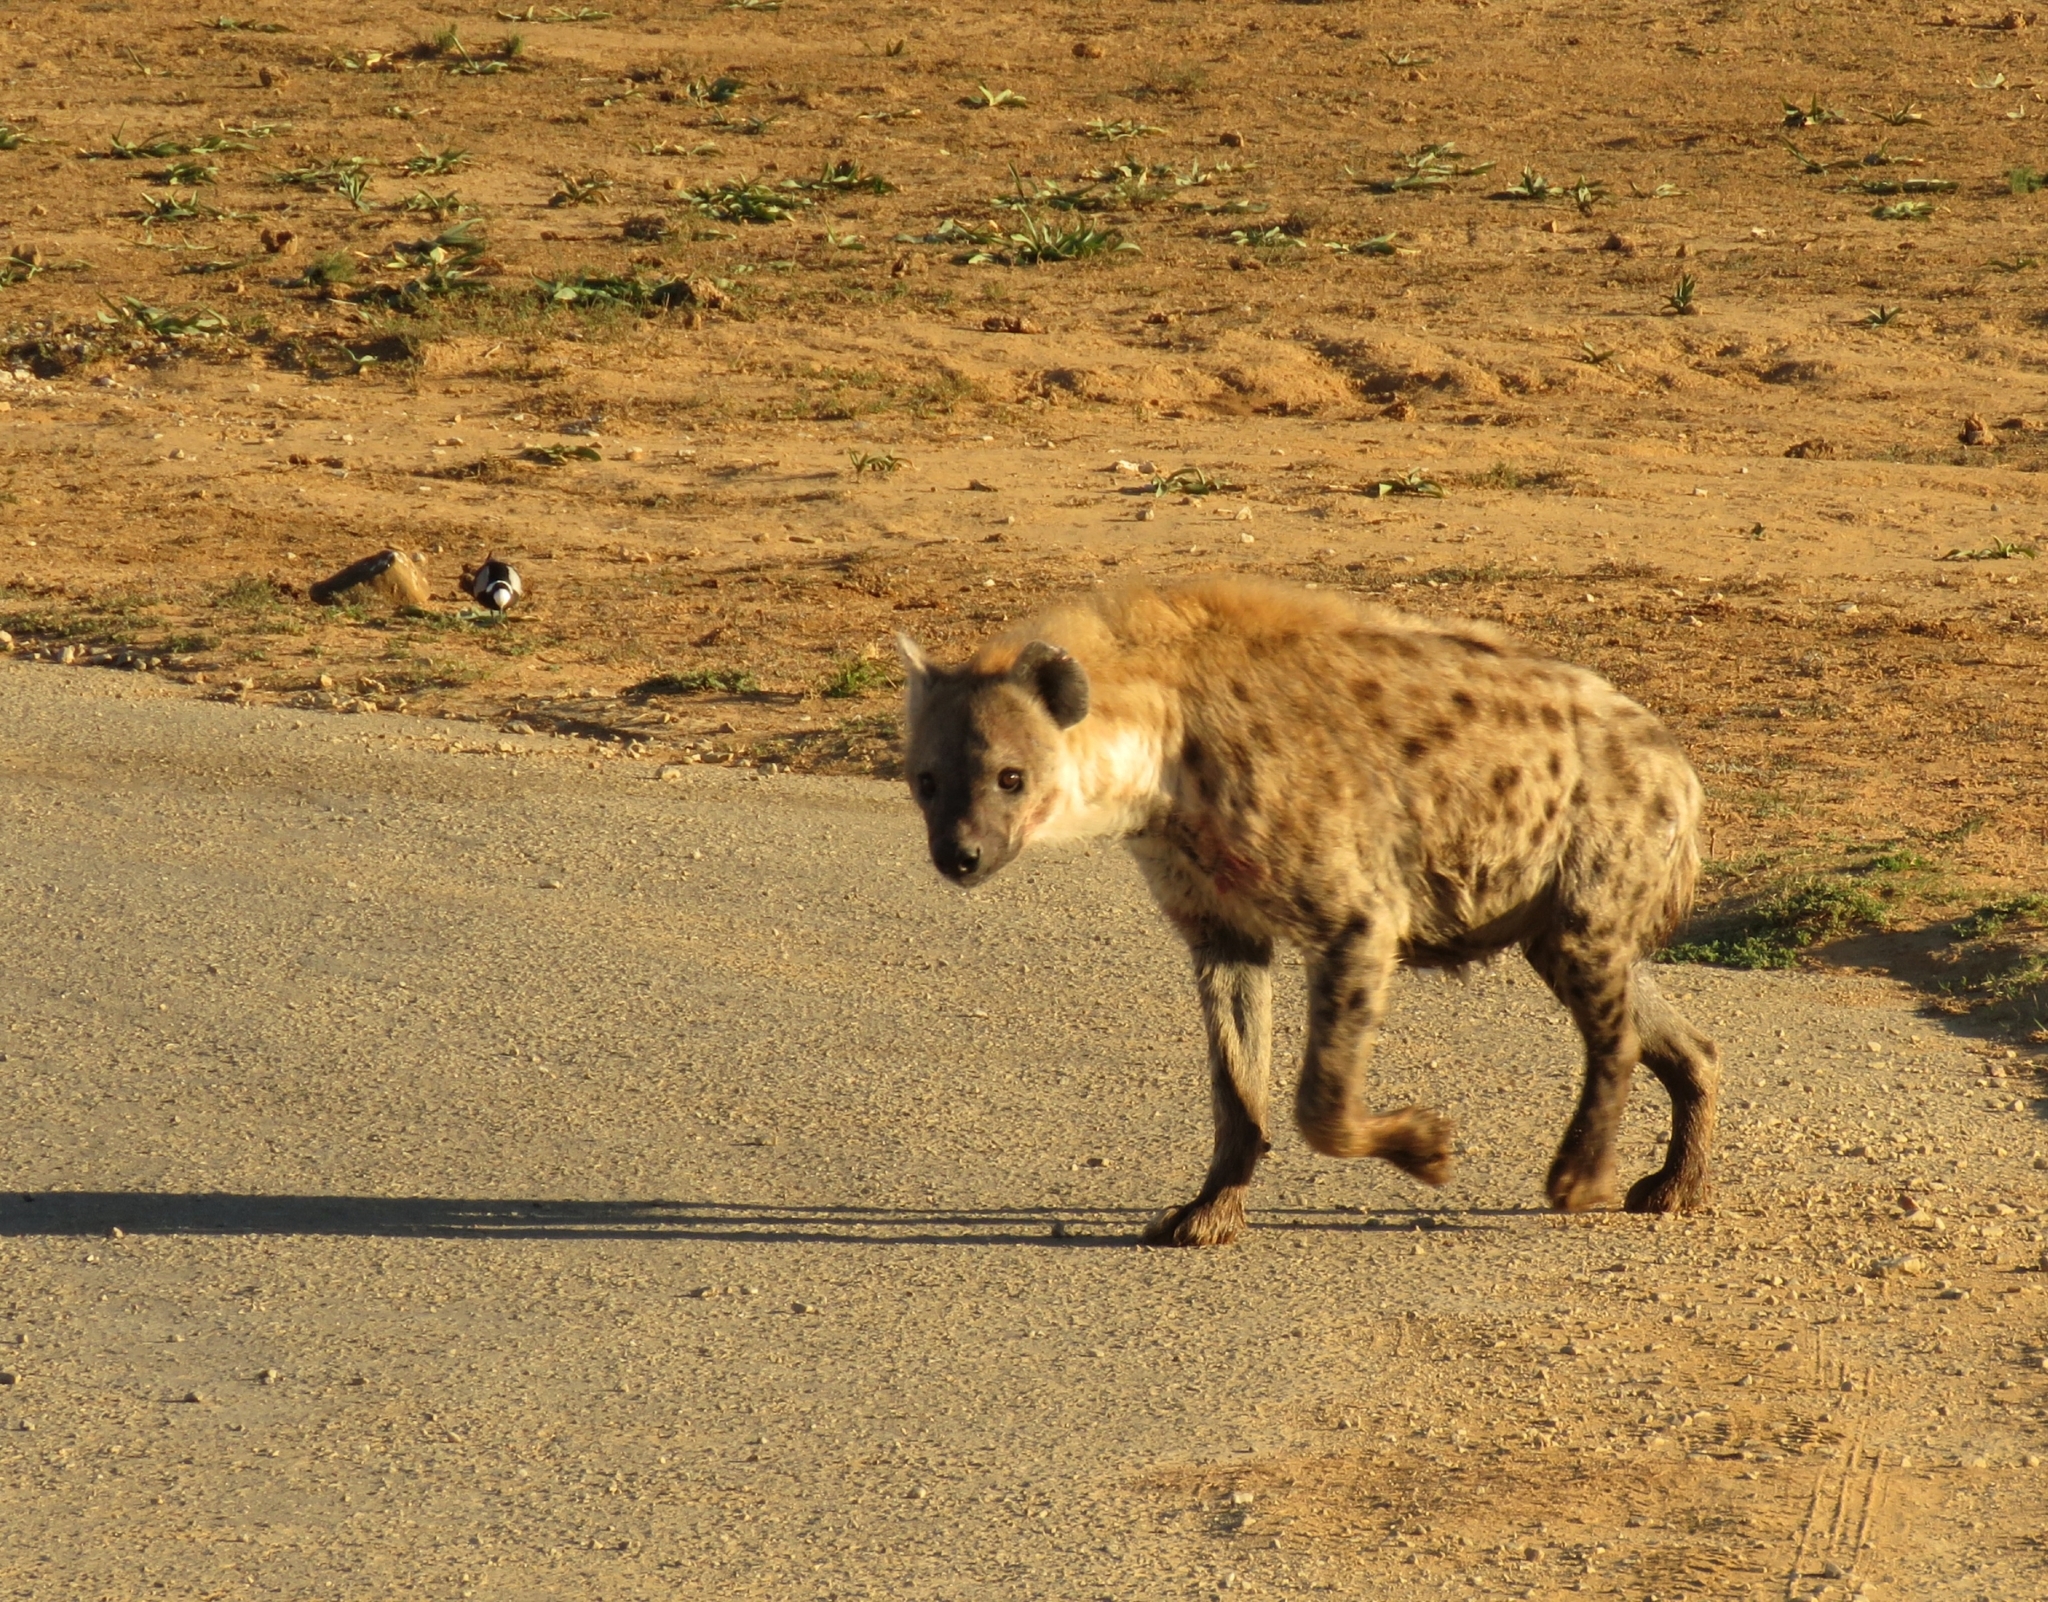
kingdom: Animalia
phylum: Chordata
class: Mammalia
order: Carnivora
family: Hyaenidae
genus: Crocuta
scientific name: Crocuta crocuta
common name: Spotted hyaena
